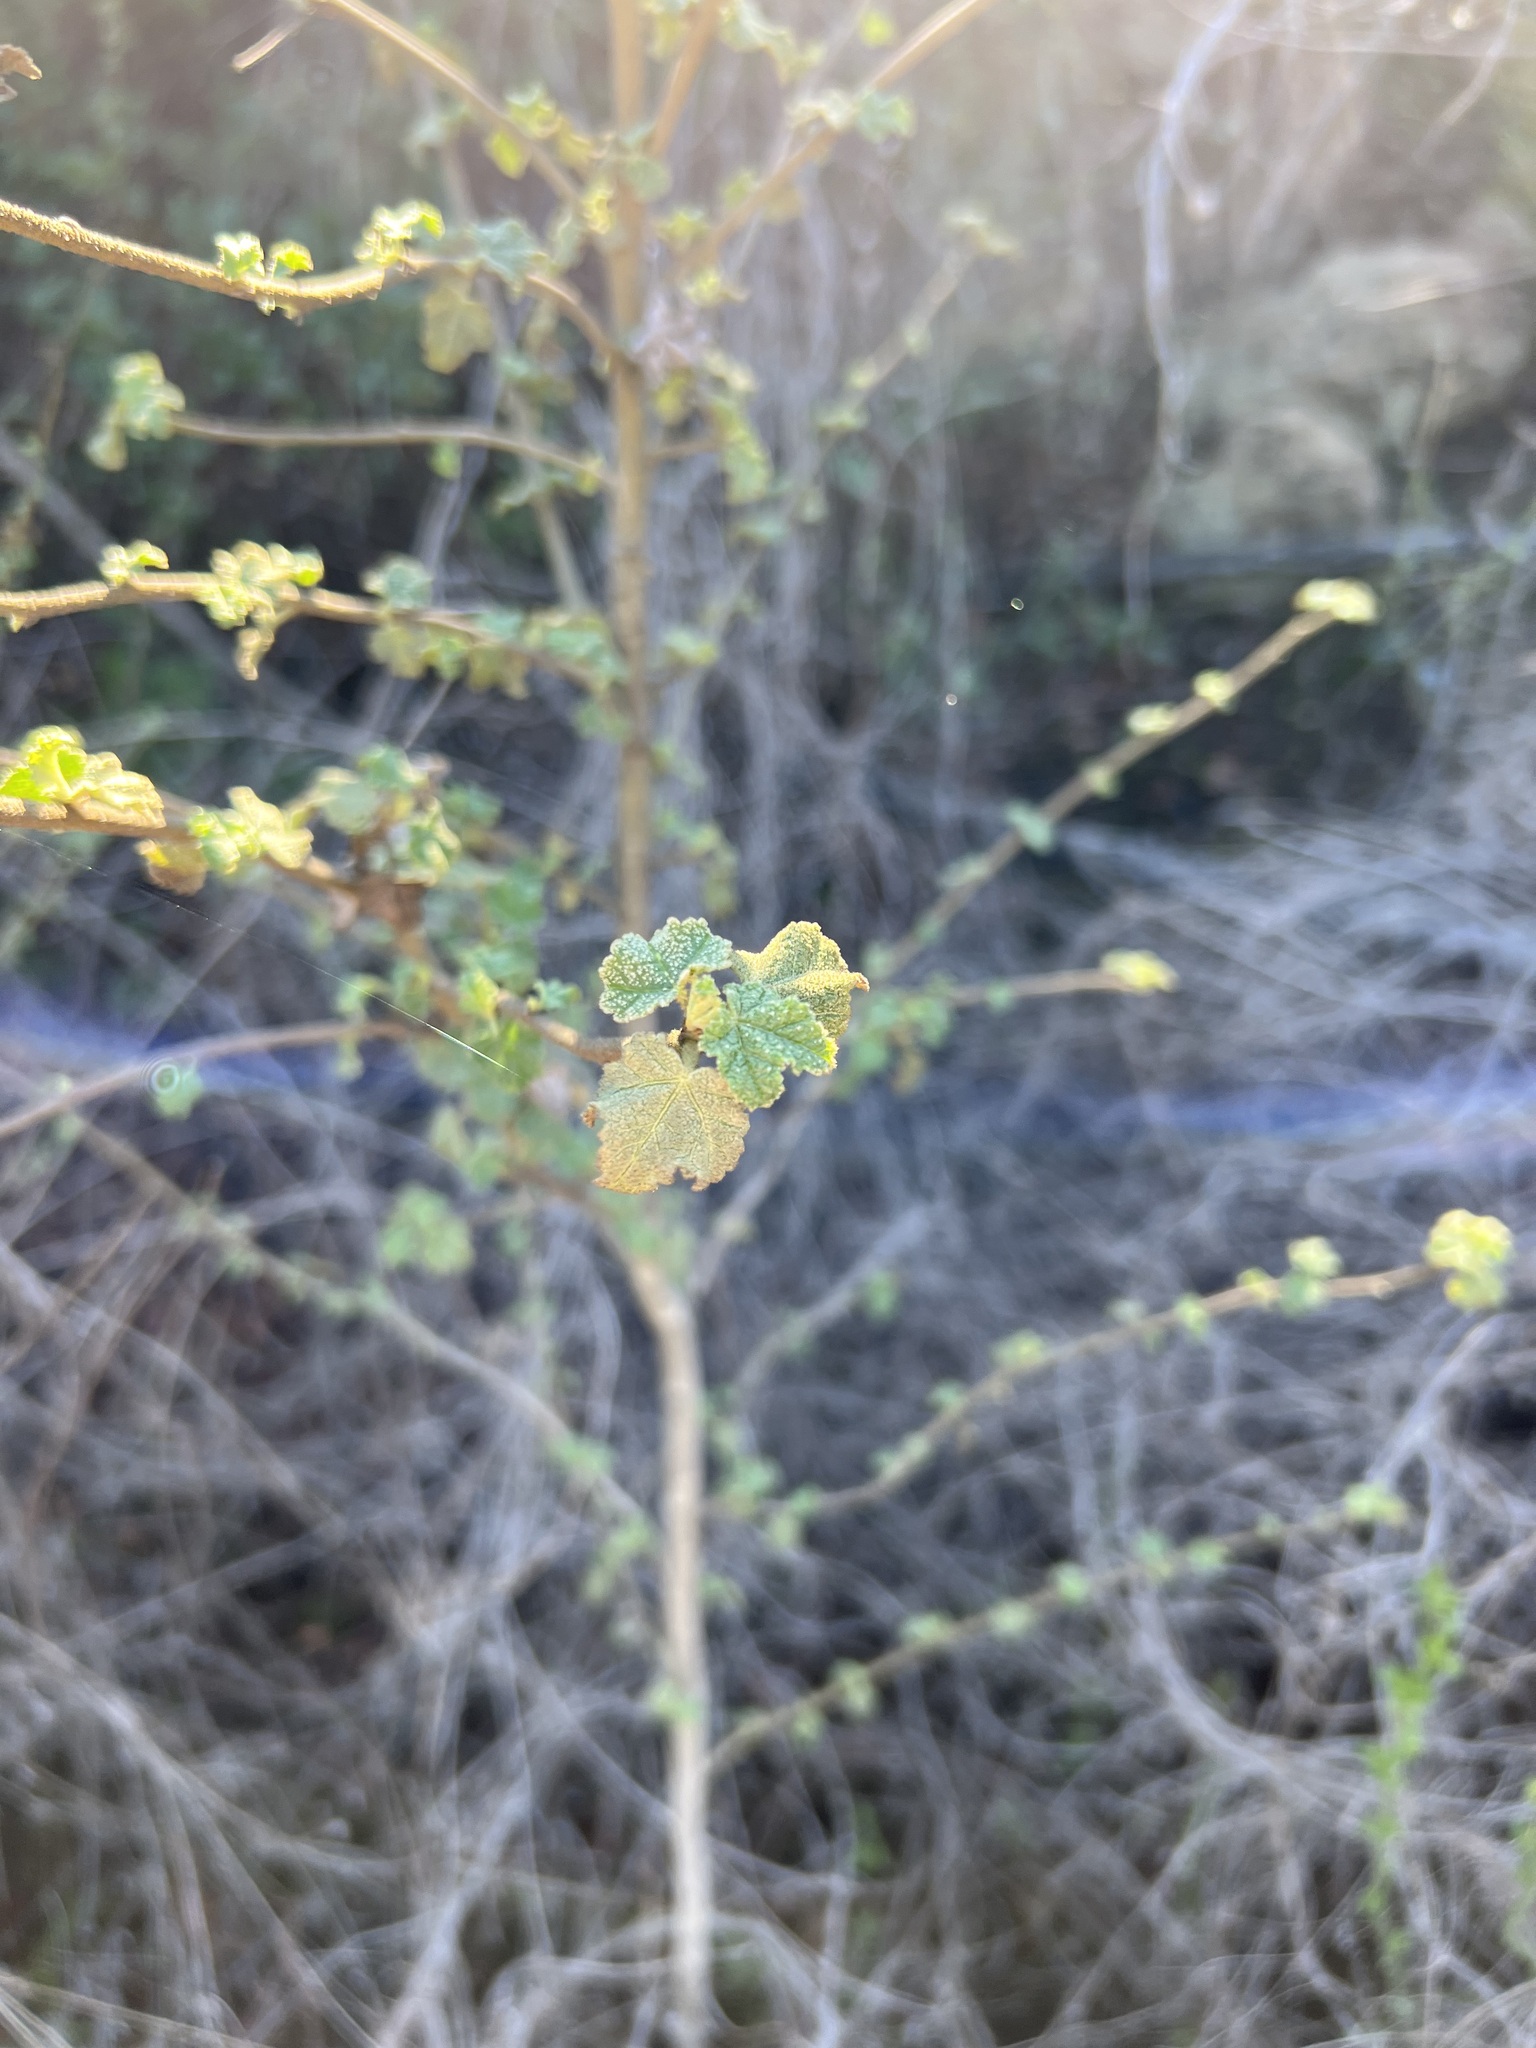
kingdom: Plantae
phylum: Tracheophyta
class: Magnoliopsida
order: Malvales
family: Malvaceae
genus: Malacothamnus
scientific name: Malacothamnus fasciculatus
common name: Sant cruz island bush-mallow
